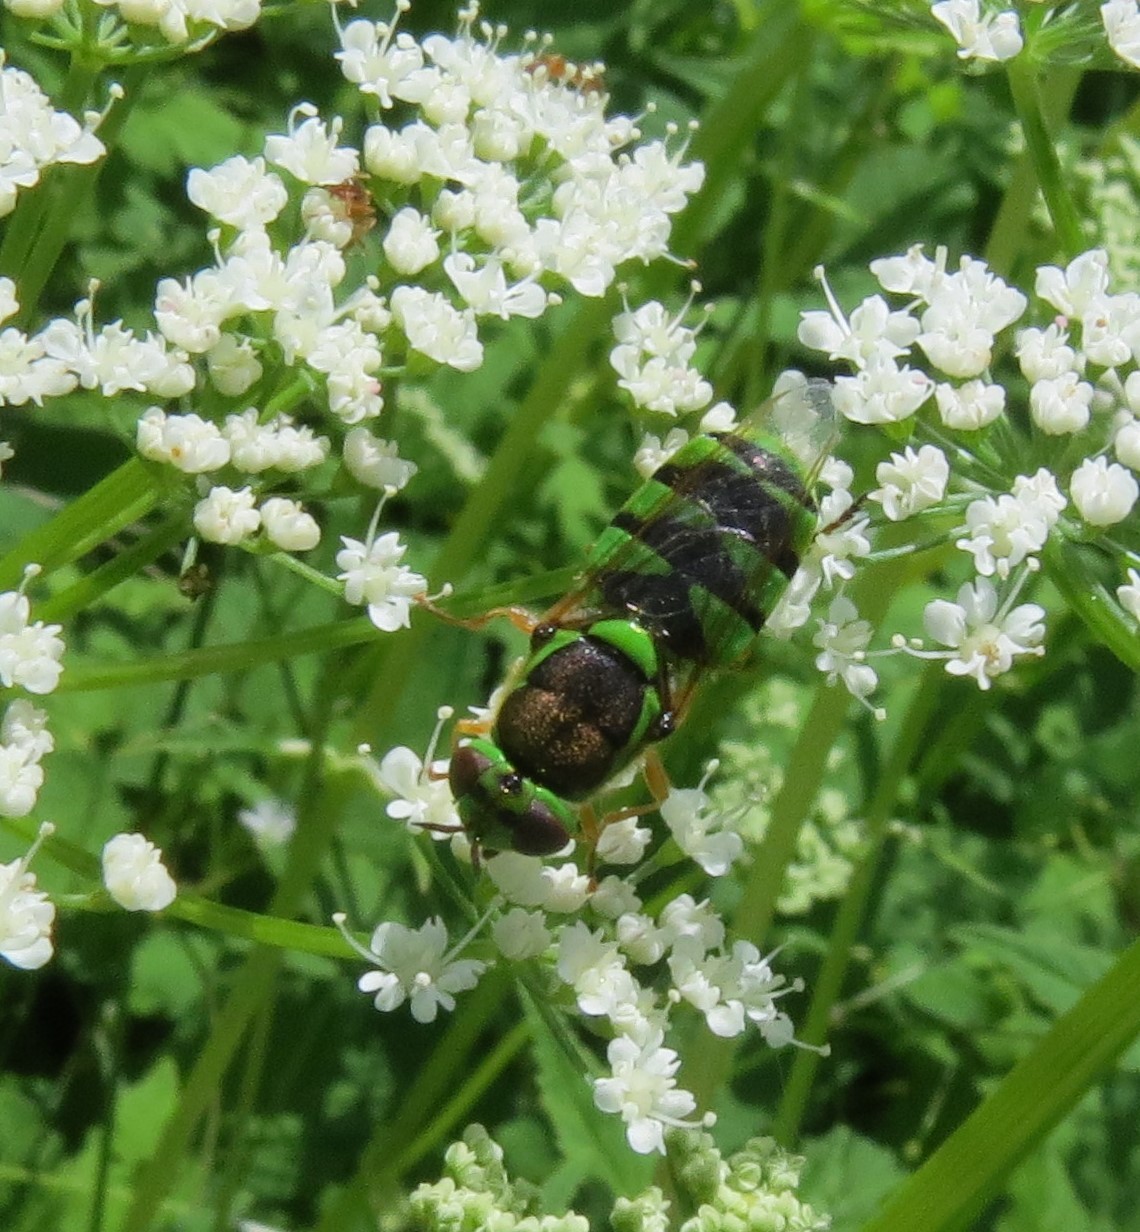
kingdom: Animalia
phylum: Arthropoda
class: Insecta
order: Diptera
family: Stratiomyidae
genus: Odontomyia
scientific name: Odontomyia cincta
